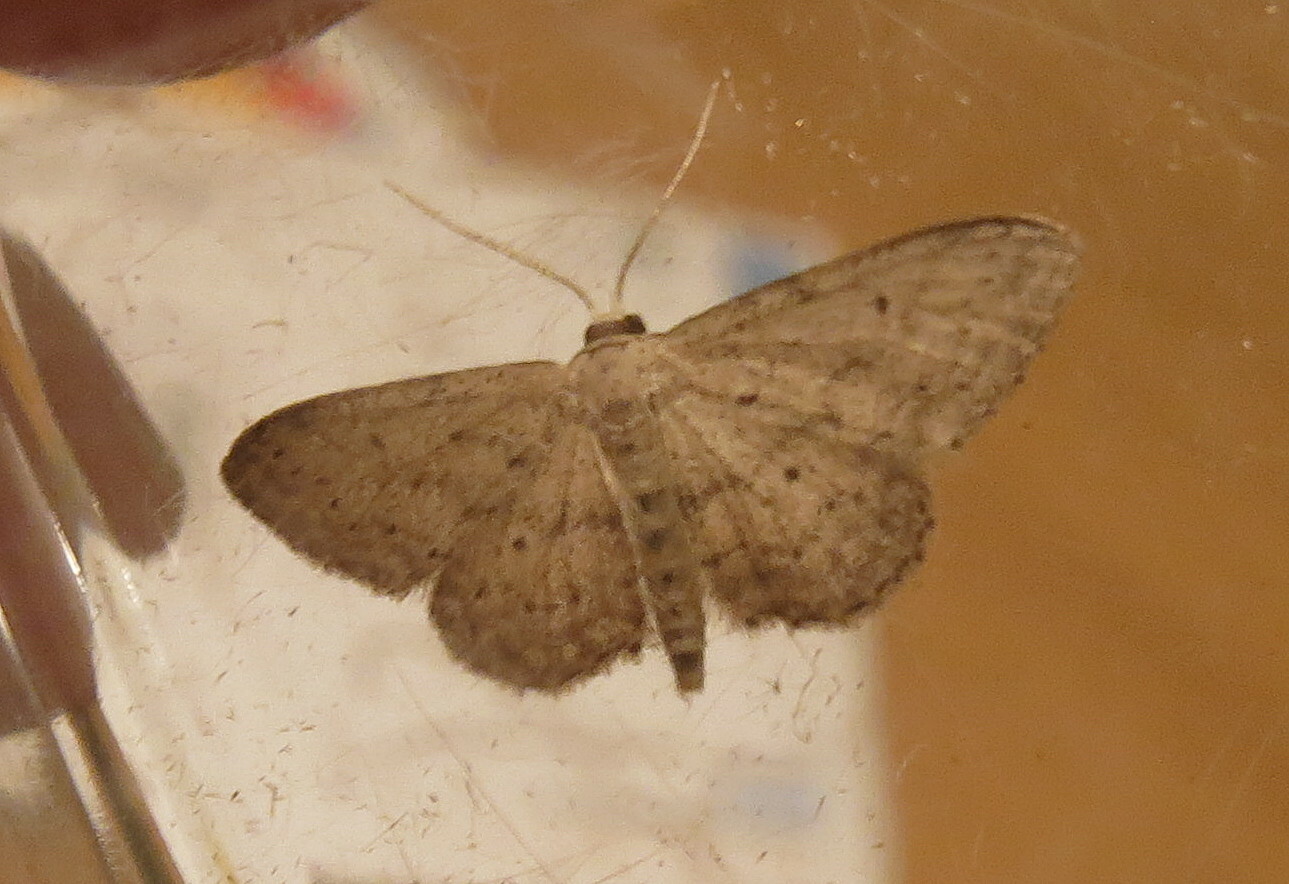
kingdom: Animalia
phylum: Arthropoda
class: Insecta
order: Lepidoptera
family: Geometridae
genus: Idaea
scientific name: Idaea seriata
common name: Small dusty wave
